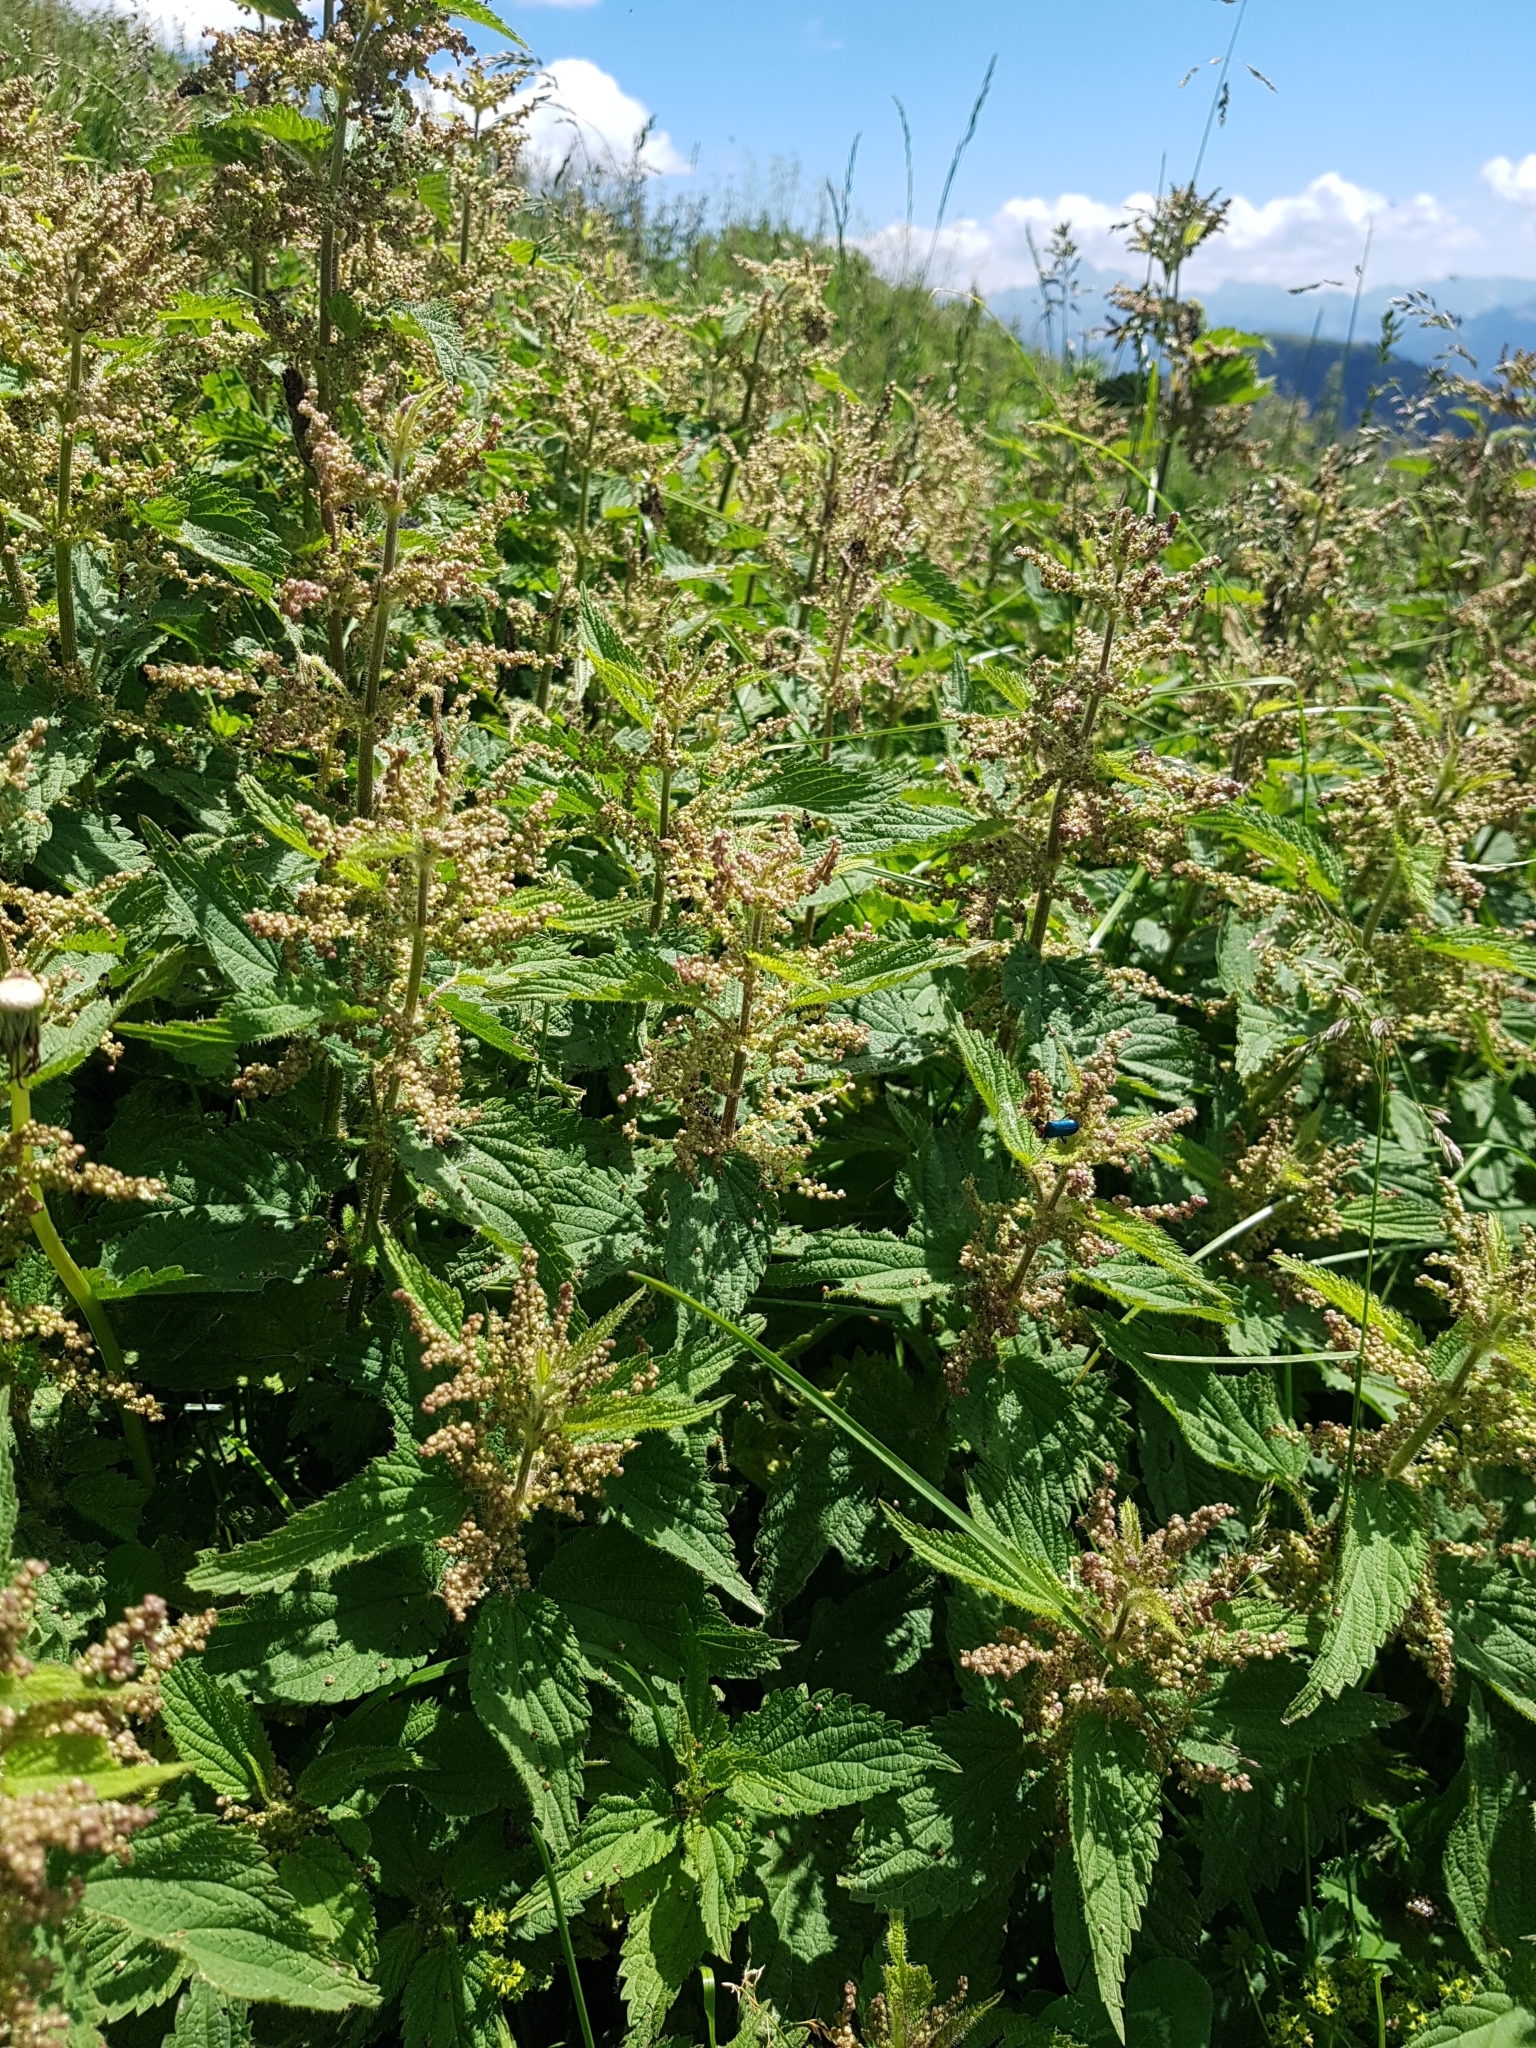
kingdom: Plantae
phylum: Tracheophyta
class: Magnoliopsida
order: Rosales
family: Urticaceae
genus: Urtica
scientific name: Urtica dioica
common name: Common nettle
